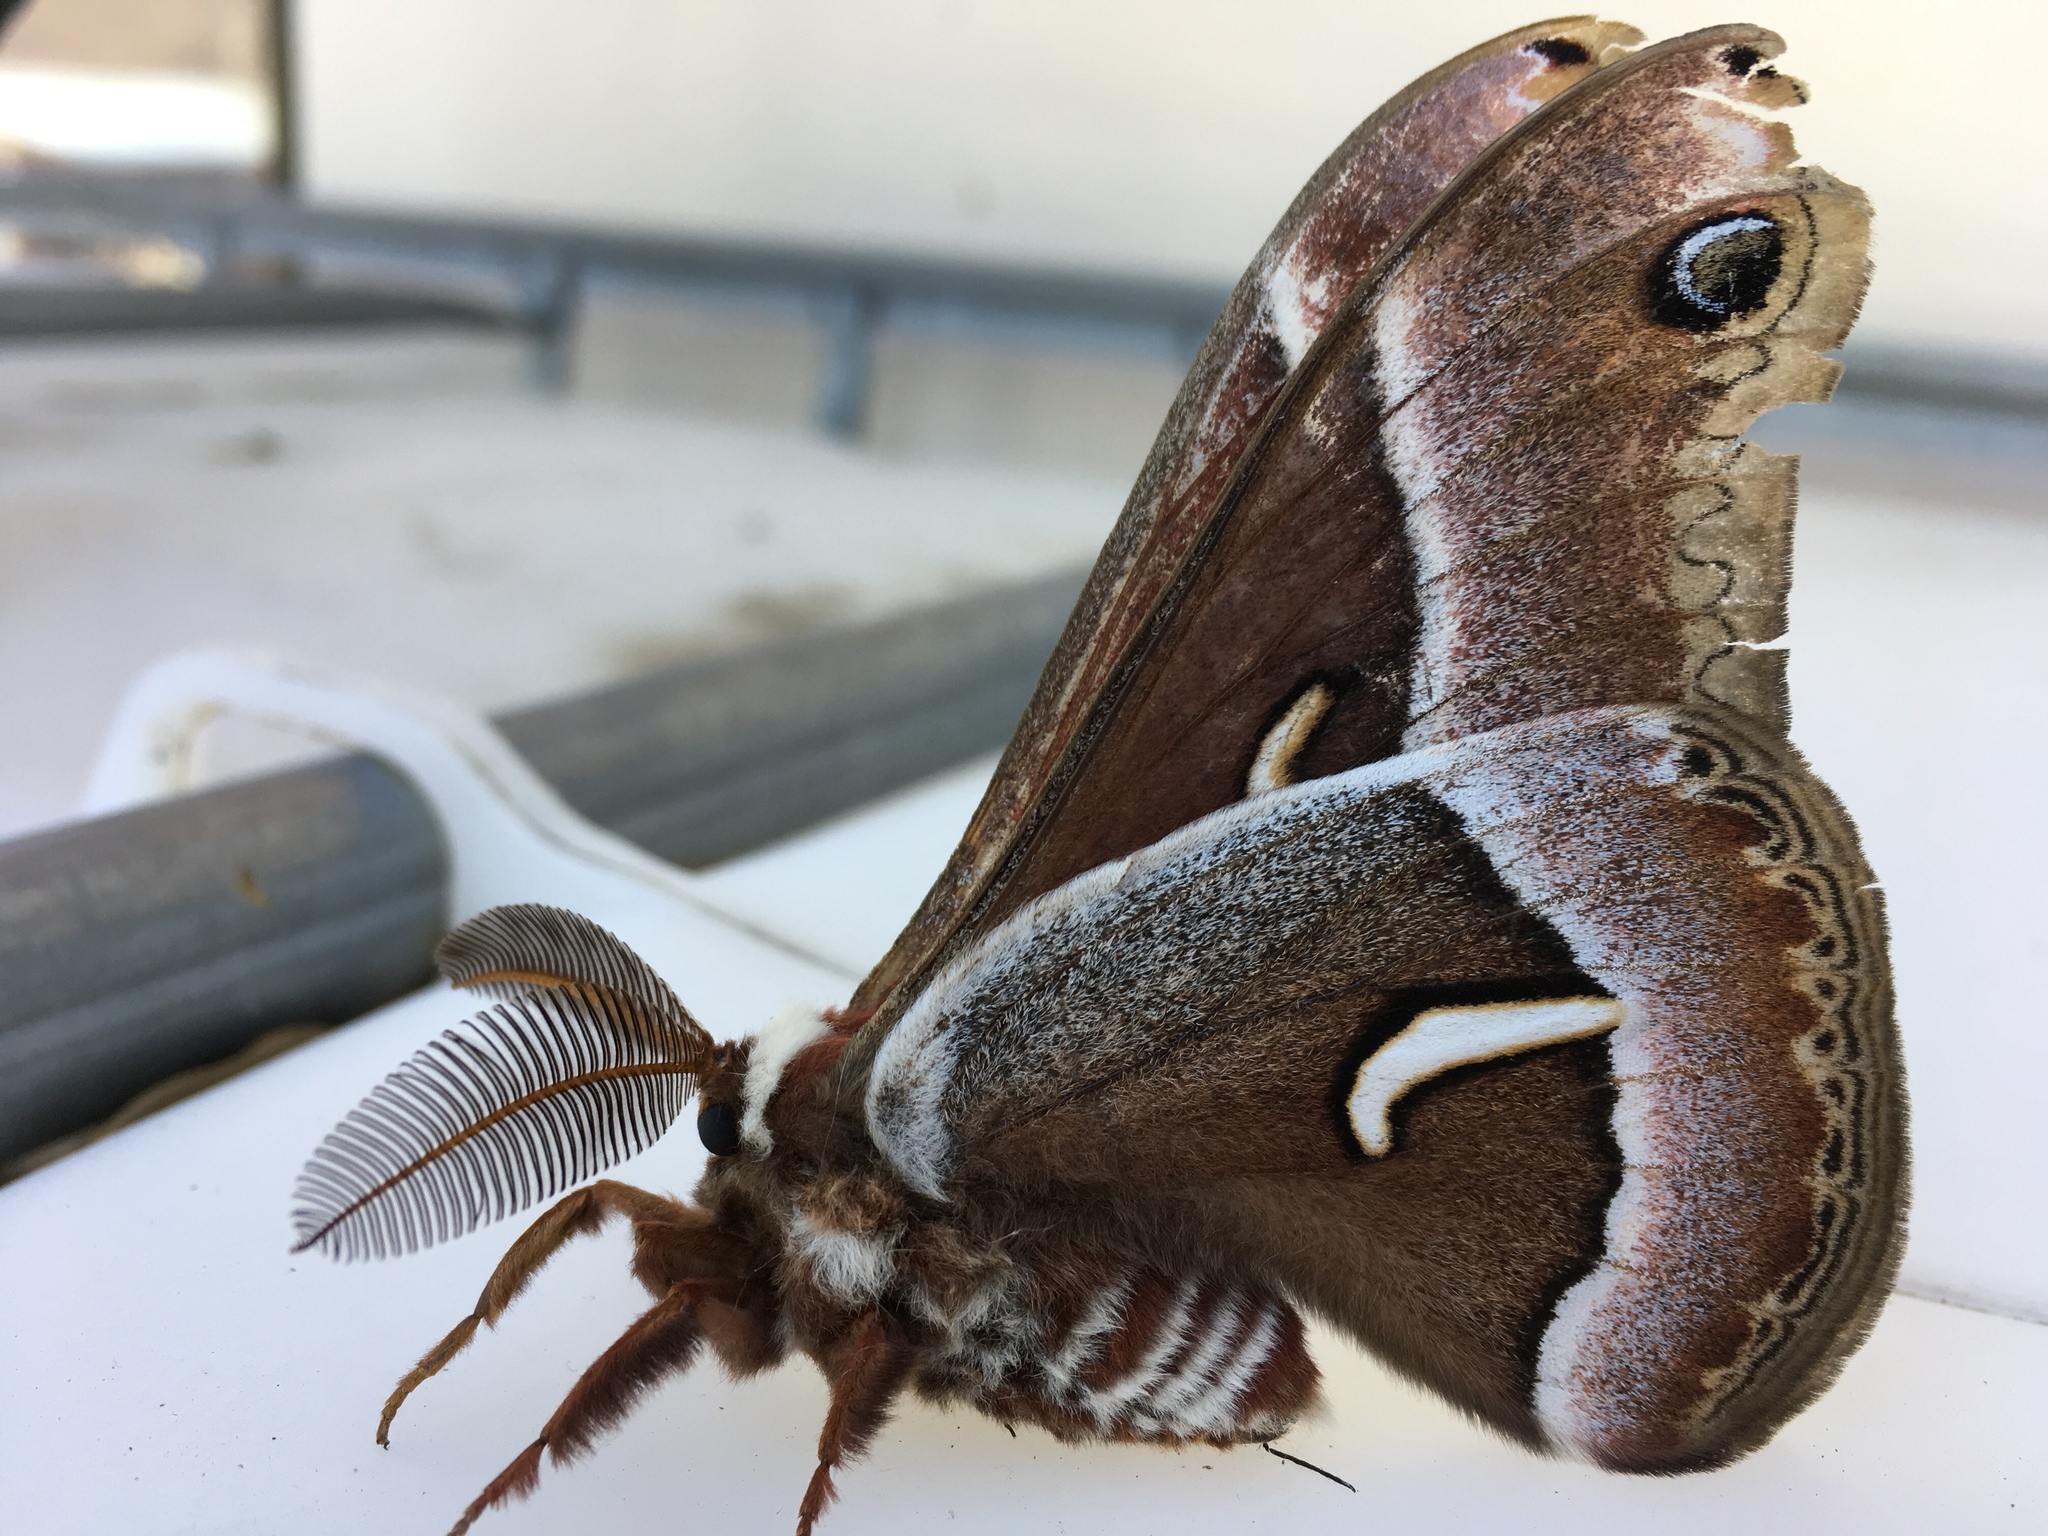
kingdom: Animalia
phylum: Arthropoda
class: Insecta
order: Lepidoptera
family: Saturniidae
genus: Hyalophora
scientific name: Hyalophora euryalus
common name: Ceanothus silkmoth
